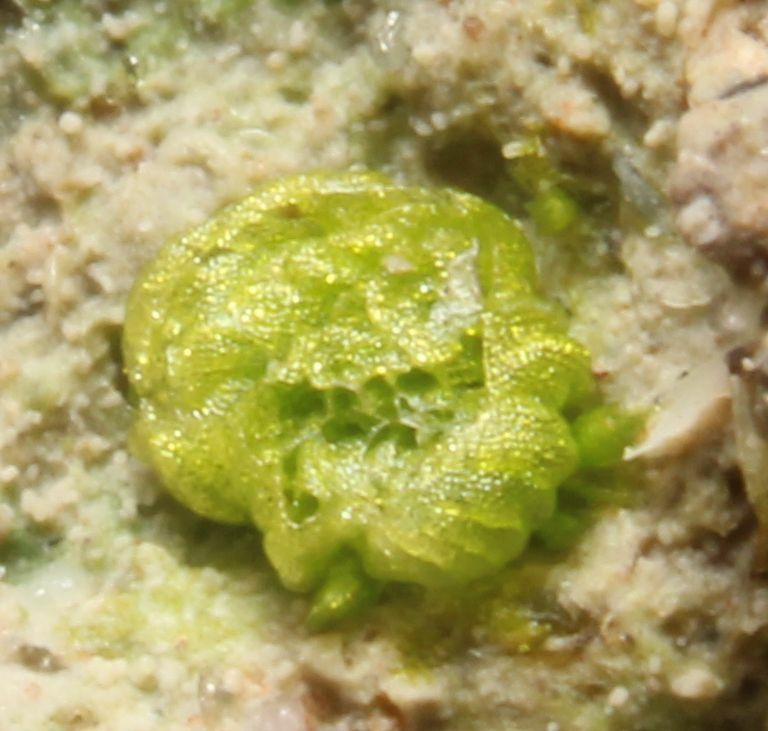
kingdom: Plantae
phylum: Marchantiophyta
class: Marchantiopsida
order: Sphaerocarpales
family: Monocarpaceae
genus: Monocarpus
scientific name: Monocarpus sphaerocarpus
